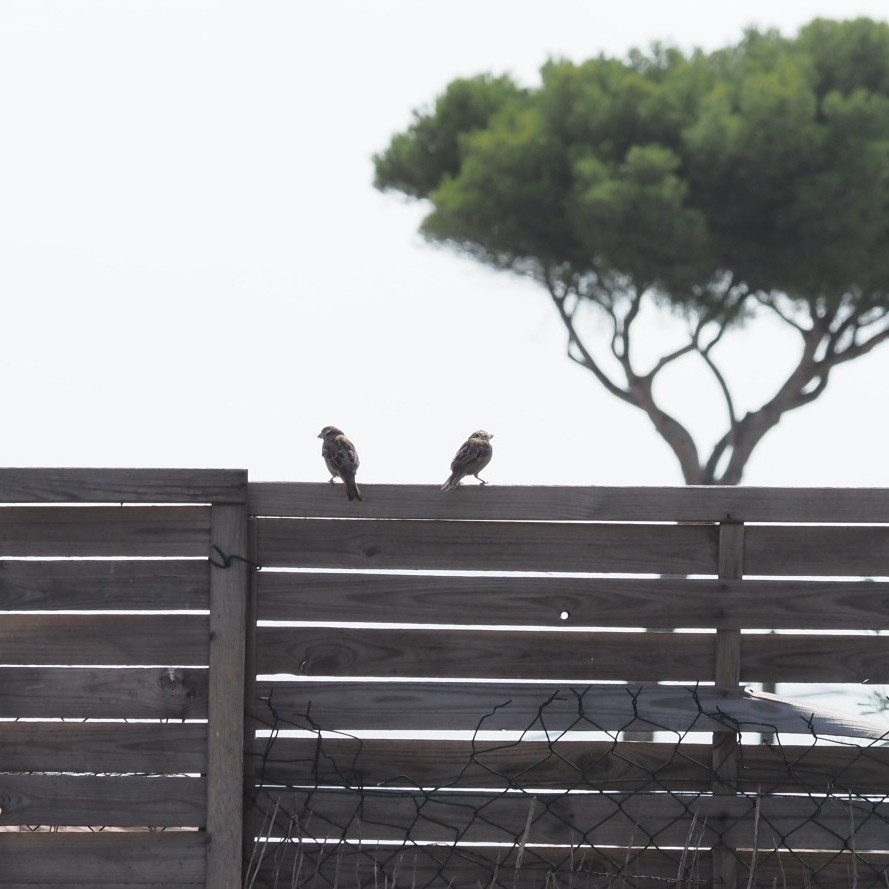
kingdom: Animalia
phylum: Chordata
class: Aves
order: Passeriformes
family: Passeridae
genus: Passer
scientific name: Passer domesticus
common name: House sparrow
